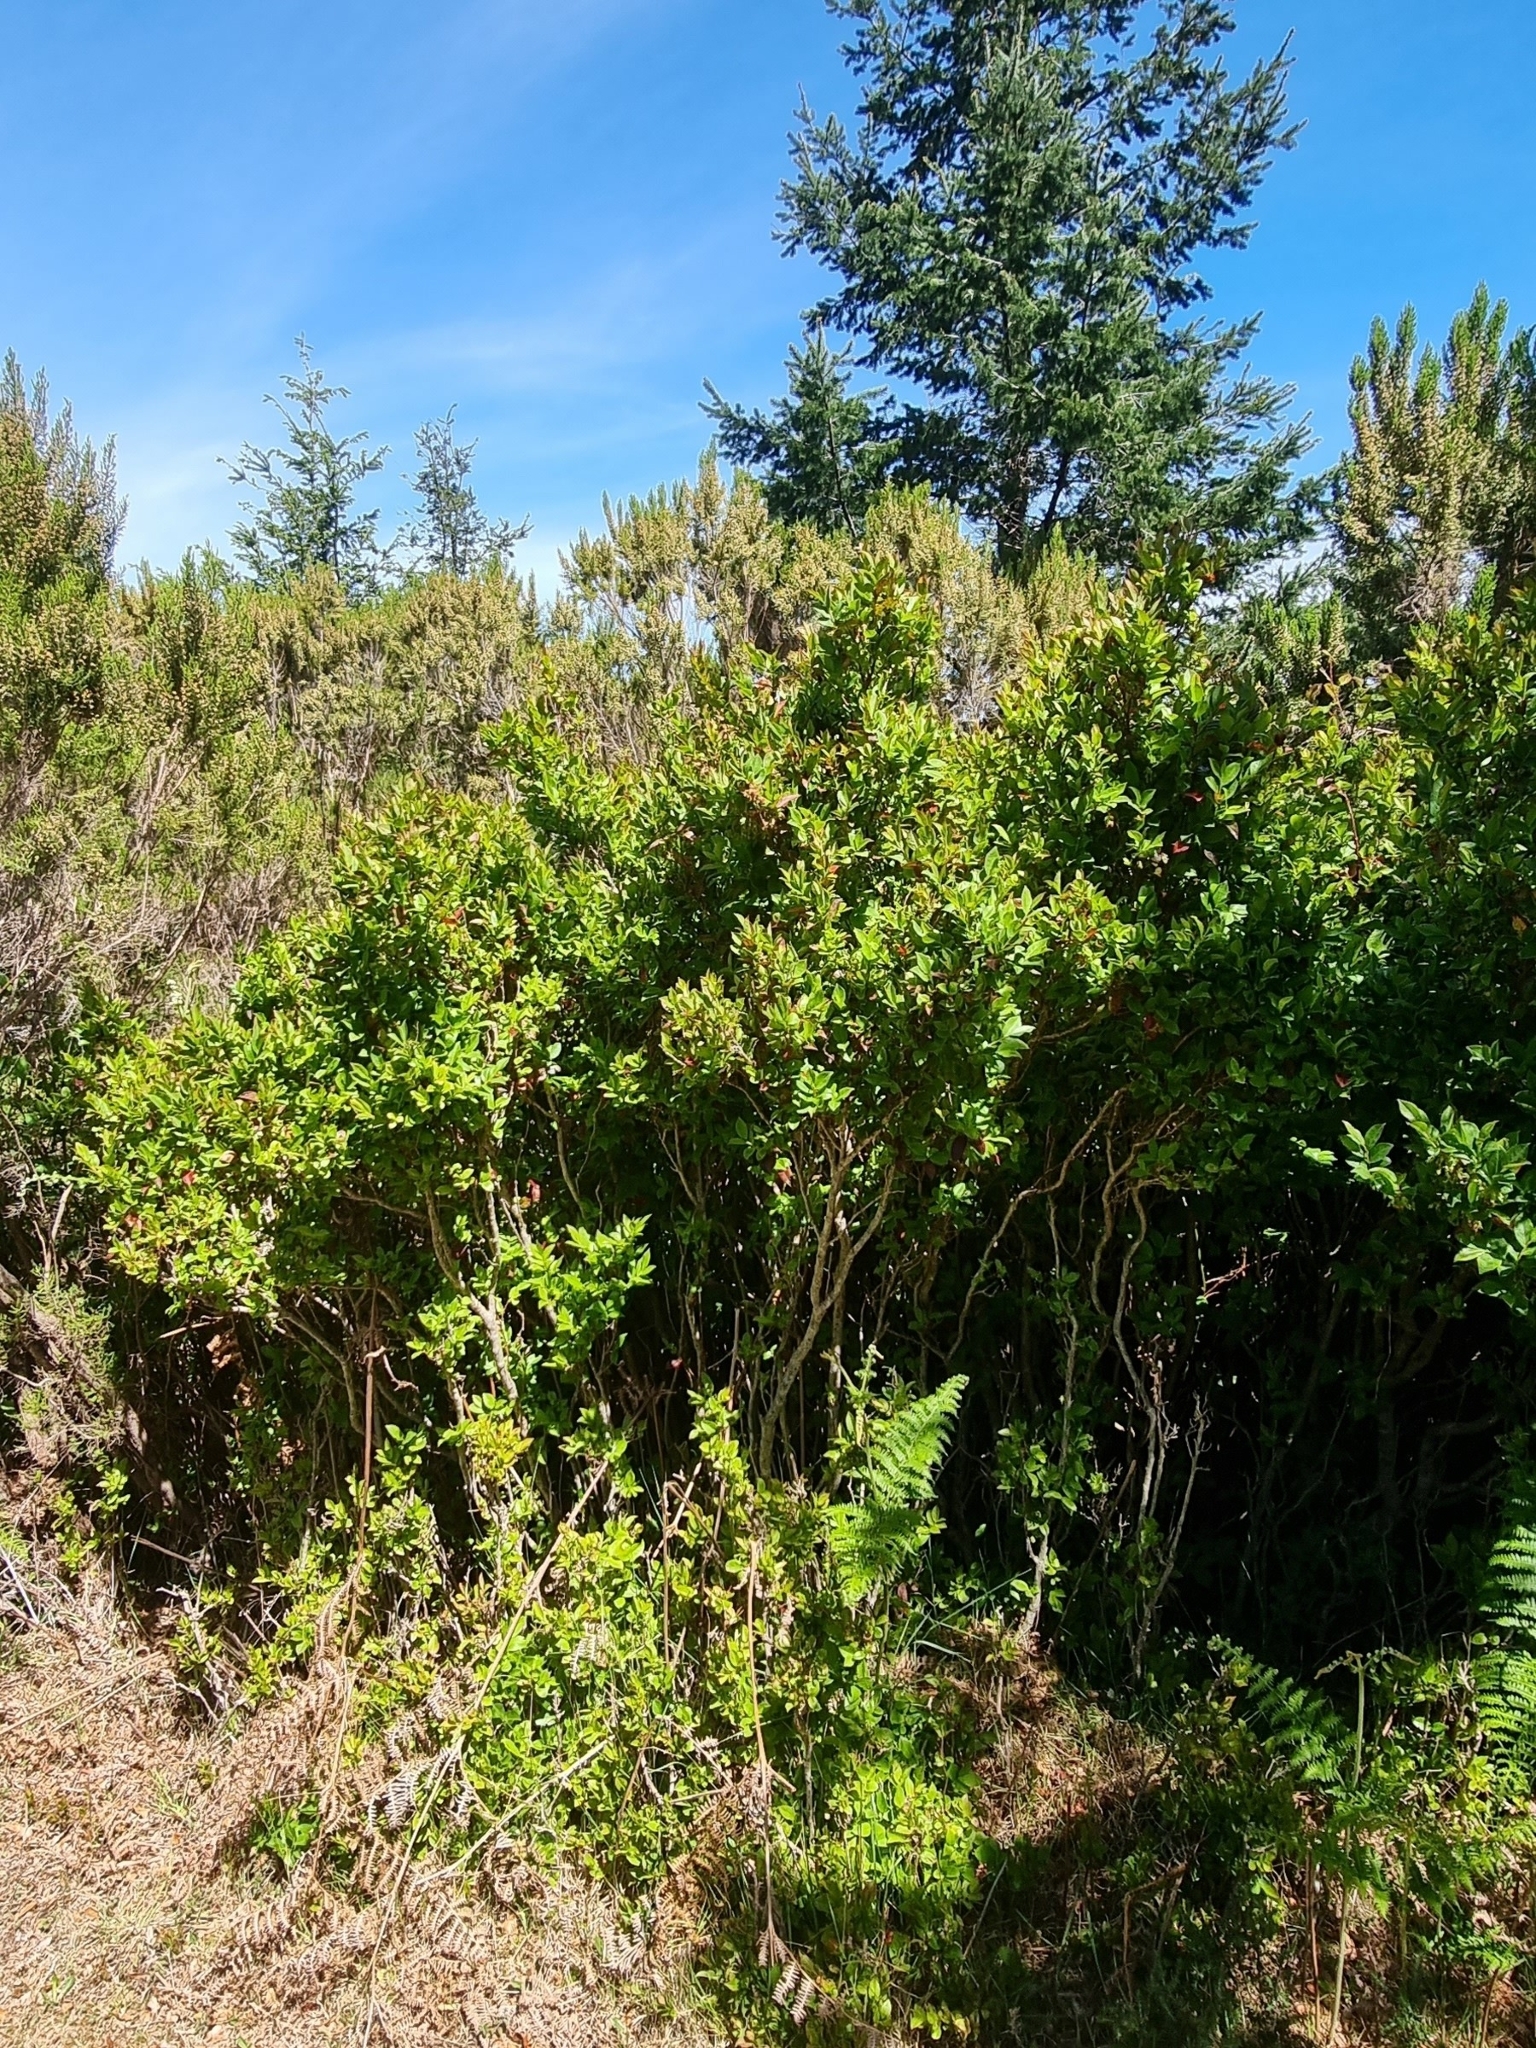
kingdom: Plantae
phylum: Tracheophyta
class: Magnoliopsida
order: Ericales
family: Ericaceae
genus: Vaccinium
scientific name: Vaccinium padifolium
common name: Madeiran blueberry
